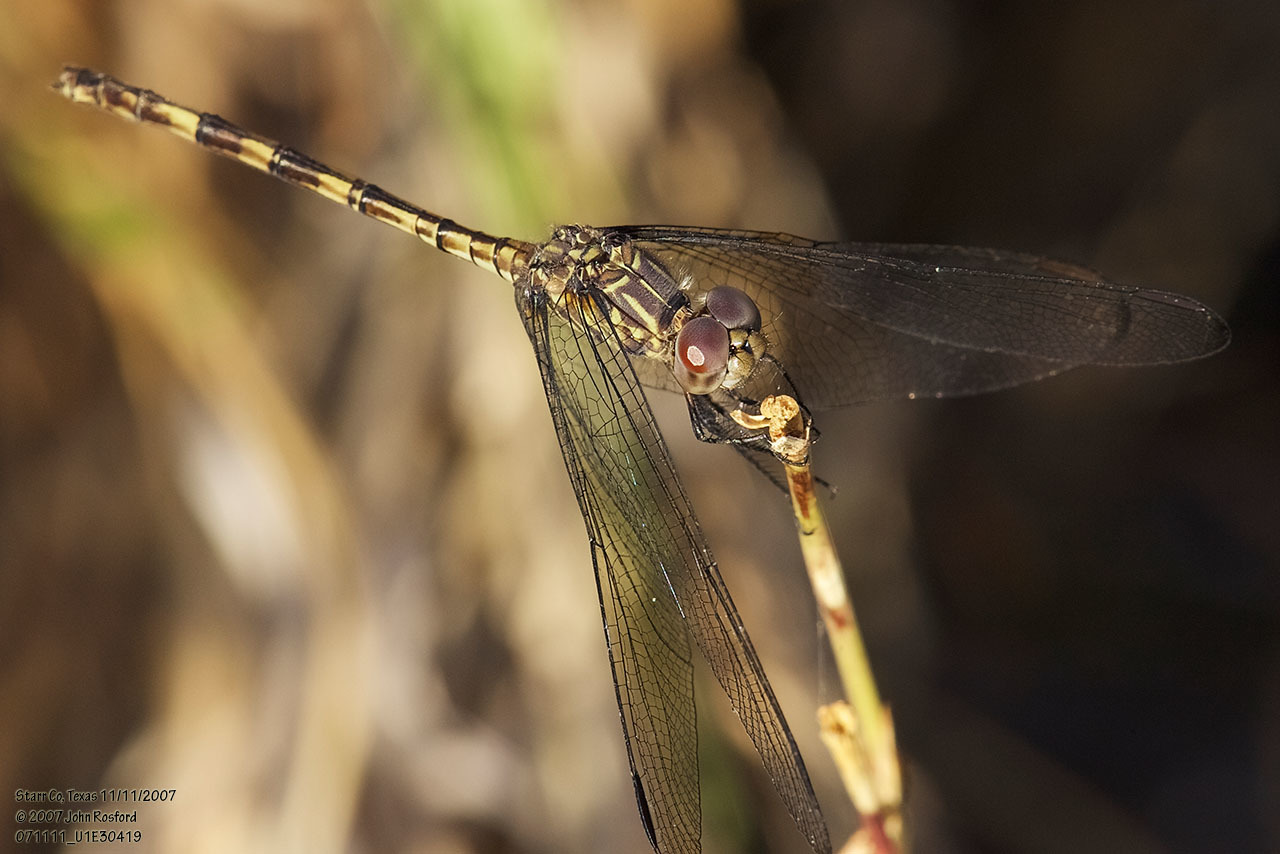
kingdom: Animalia
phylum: Arthropoda
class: Insecta
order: Odonata
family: Libellulidae
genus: Dythemis
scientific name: Dythemis nigrescens
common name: Black setwing
